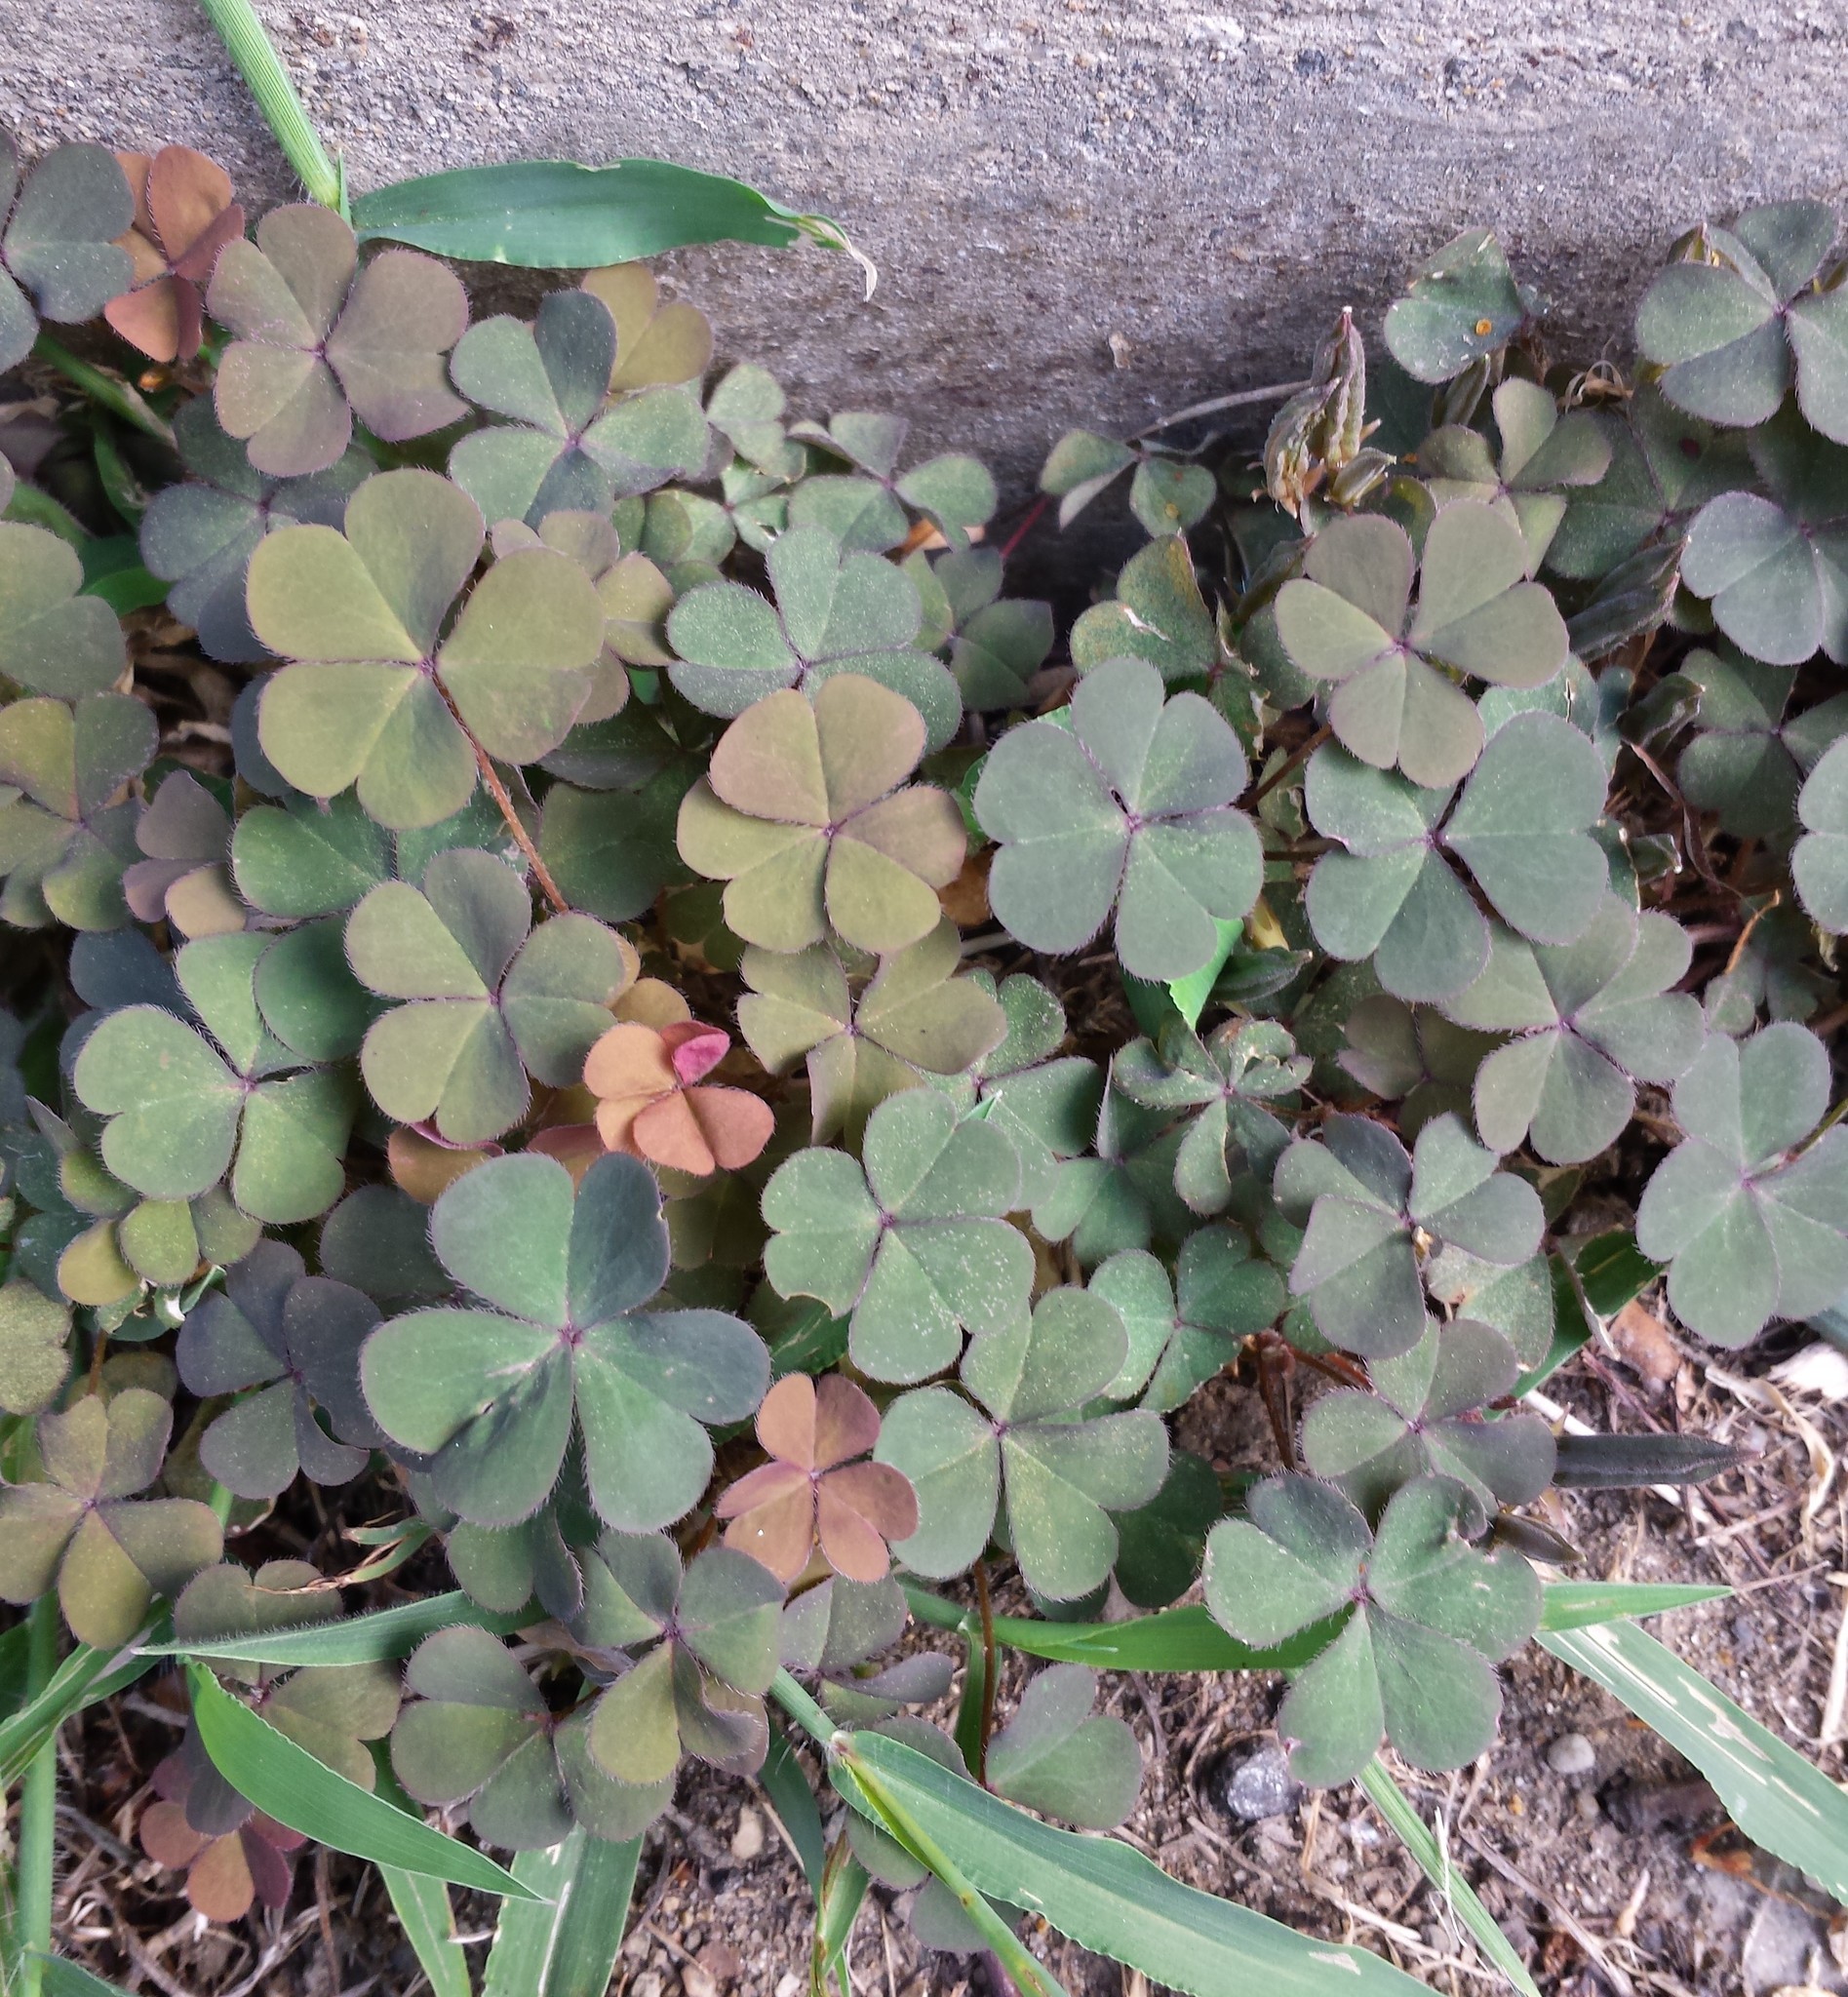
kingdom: Plantae
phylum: Tracheophyta
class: Magnoliopsida
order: Oxalidales
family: Oxalidaceae
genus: Oxalis
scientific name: Oxalis corniculata
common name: Procumbent yellow-sorrel
